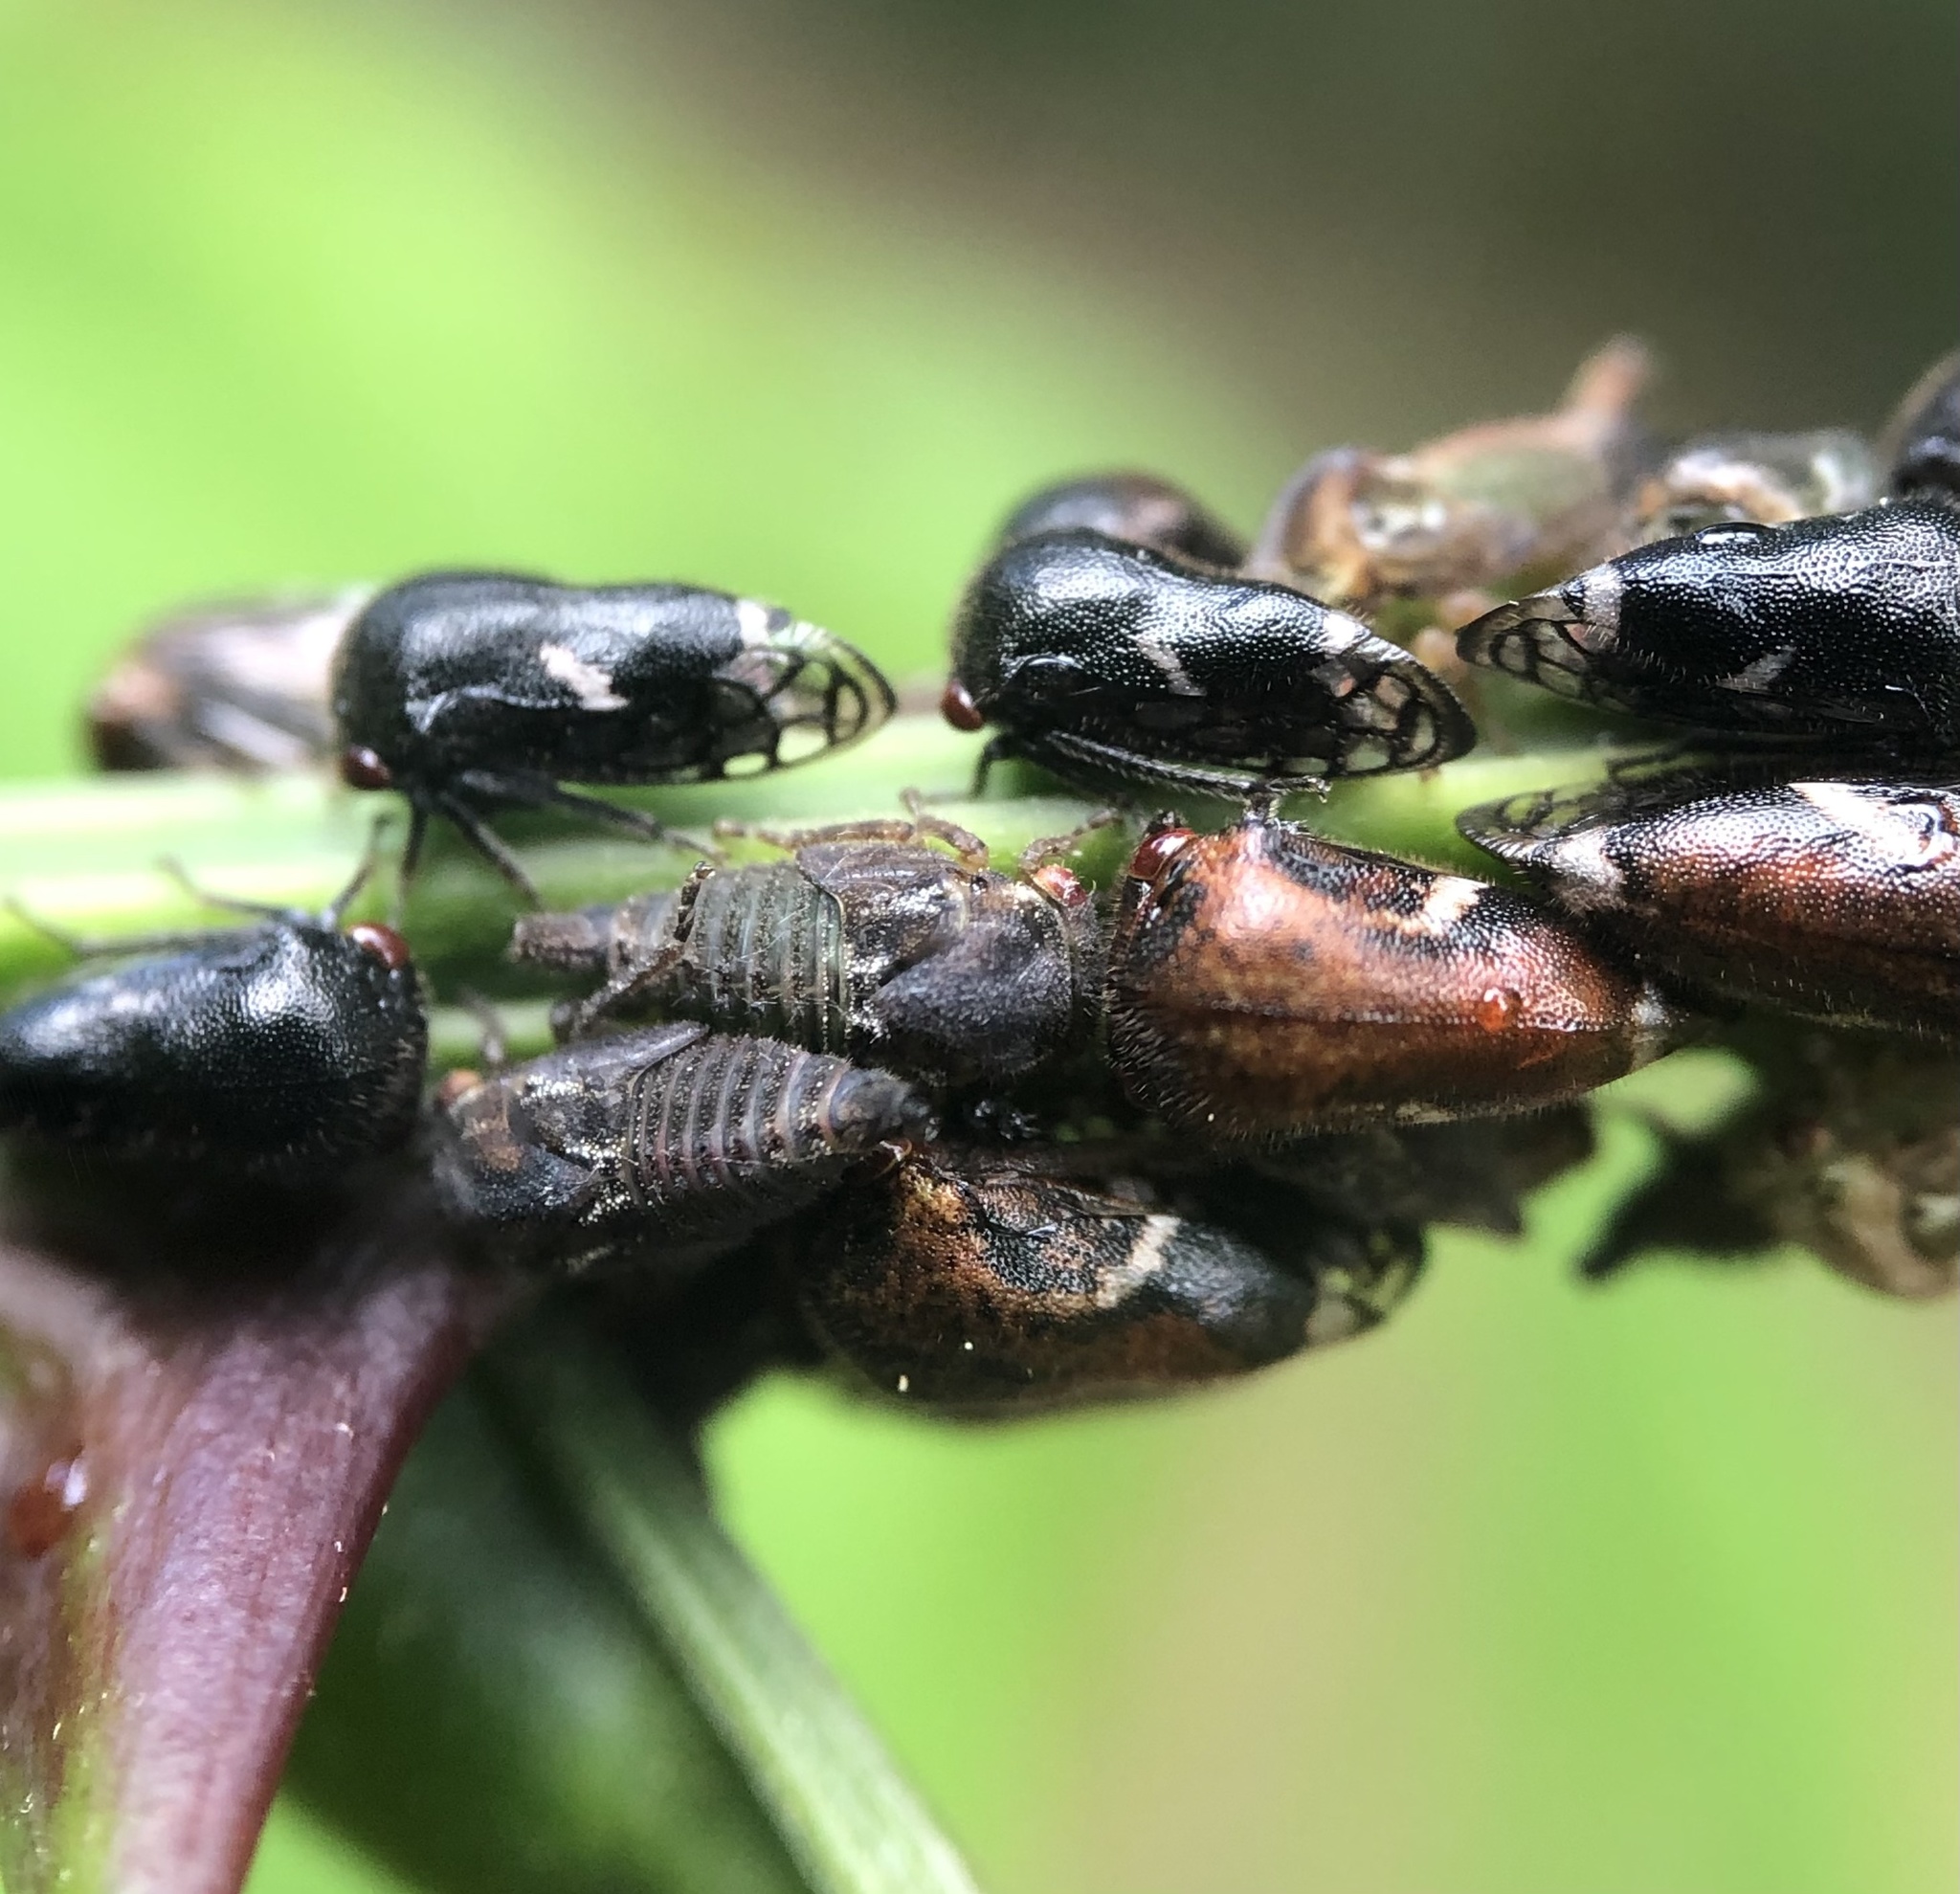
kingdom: Animalia
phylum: Arthropoda
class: Insecta
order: Hemiptera
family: Membracidae
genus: Vanduzea
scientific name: Vanduzea arquata
